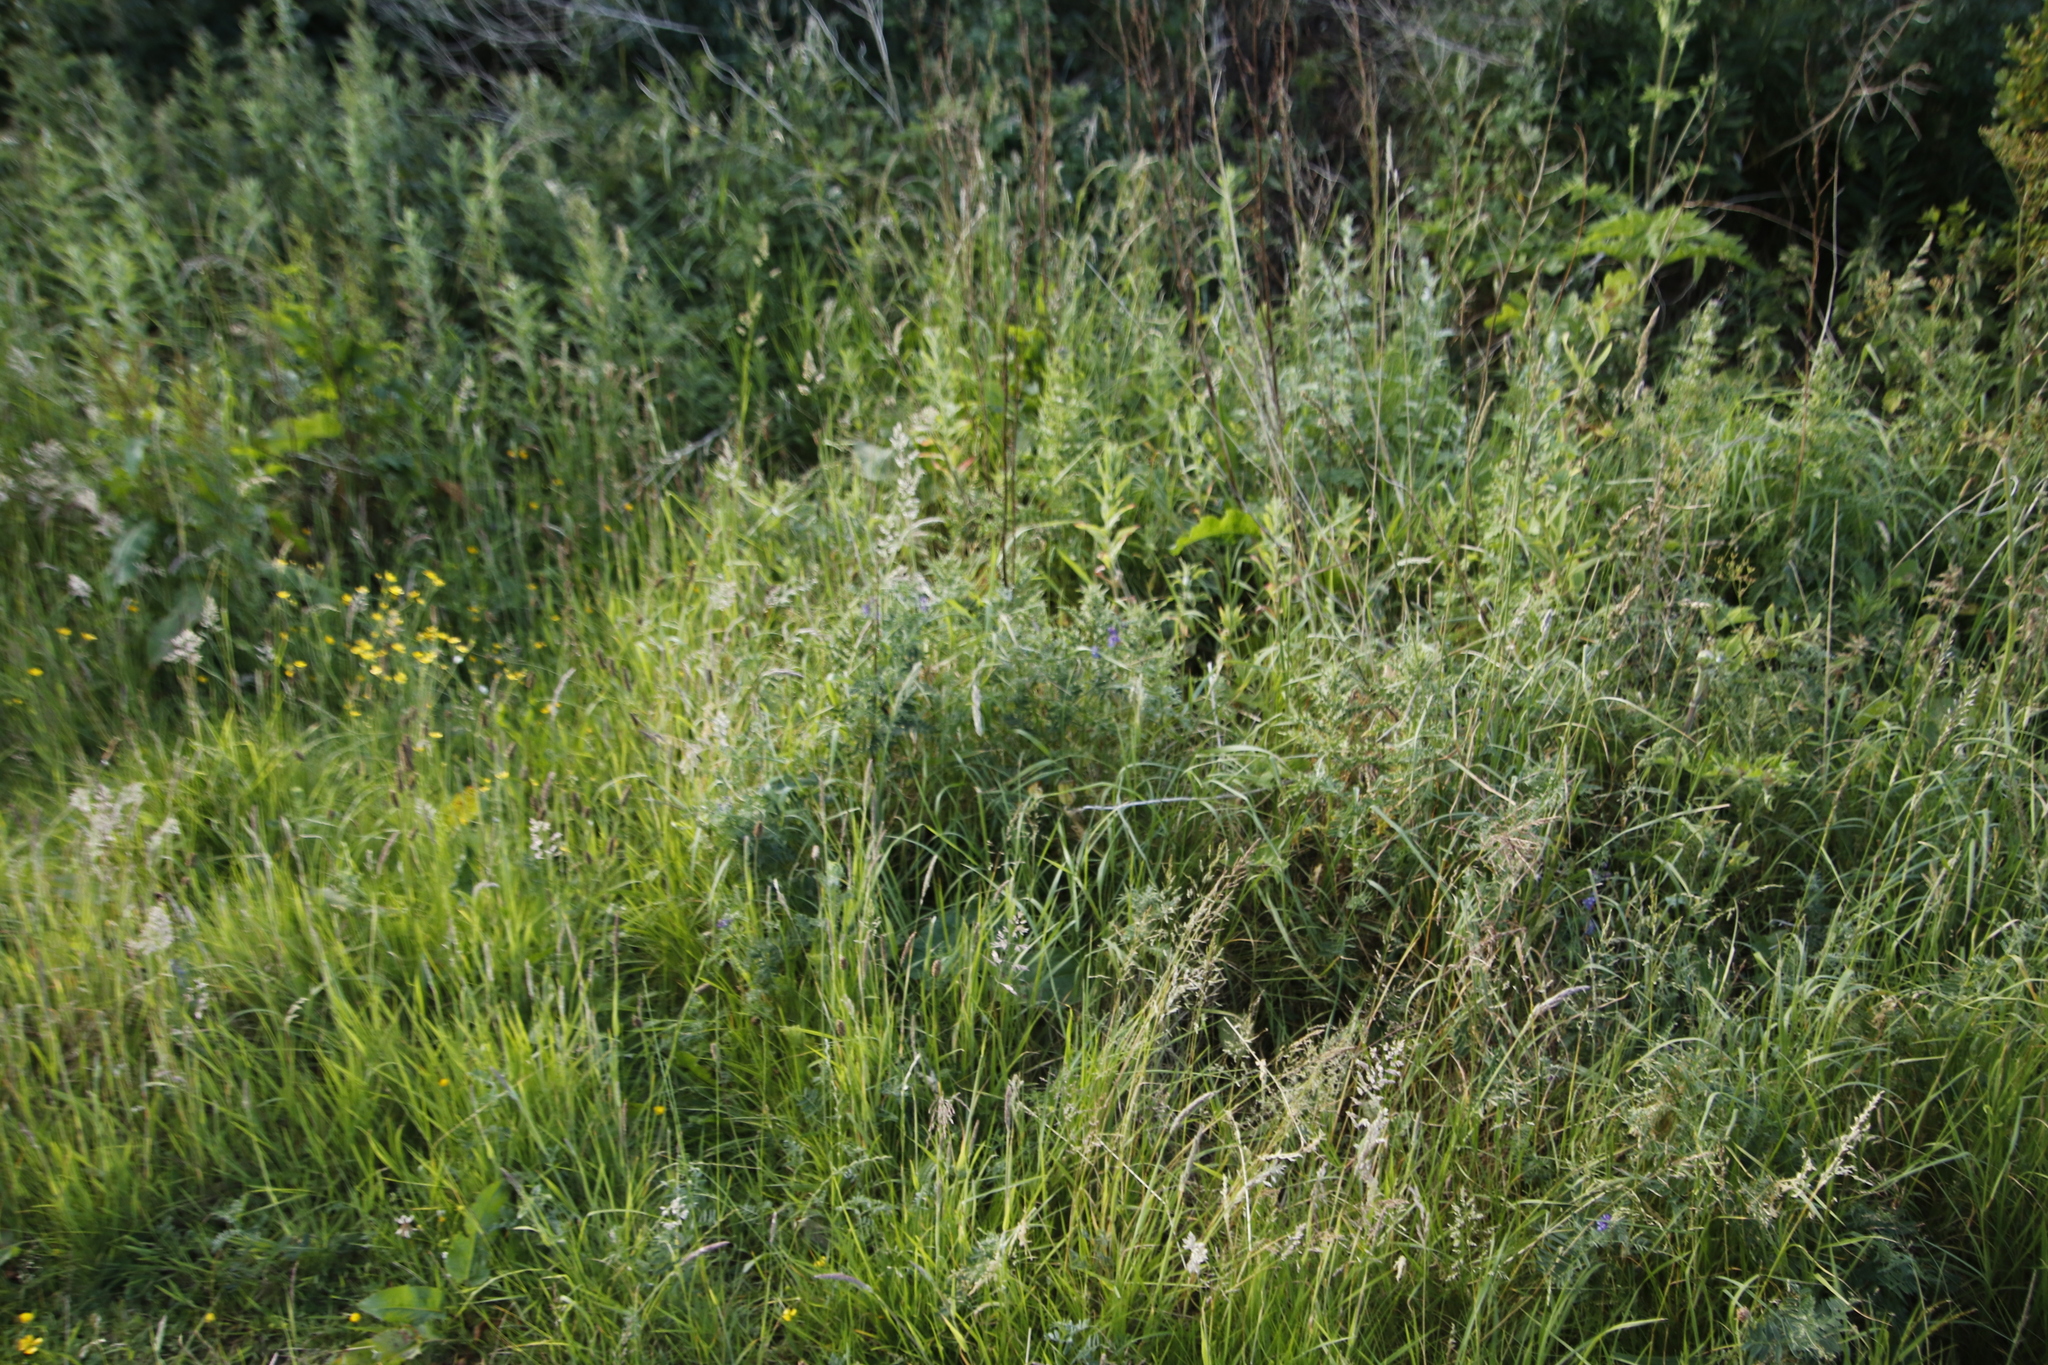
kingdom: Plantae
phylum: Tracheophyta
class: Magnoliopsida
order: Fabales
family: Fabaceae
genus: Vicia
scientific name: Vicia cracca
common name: Bird vetch
